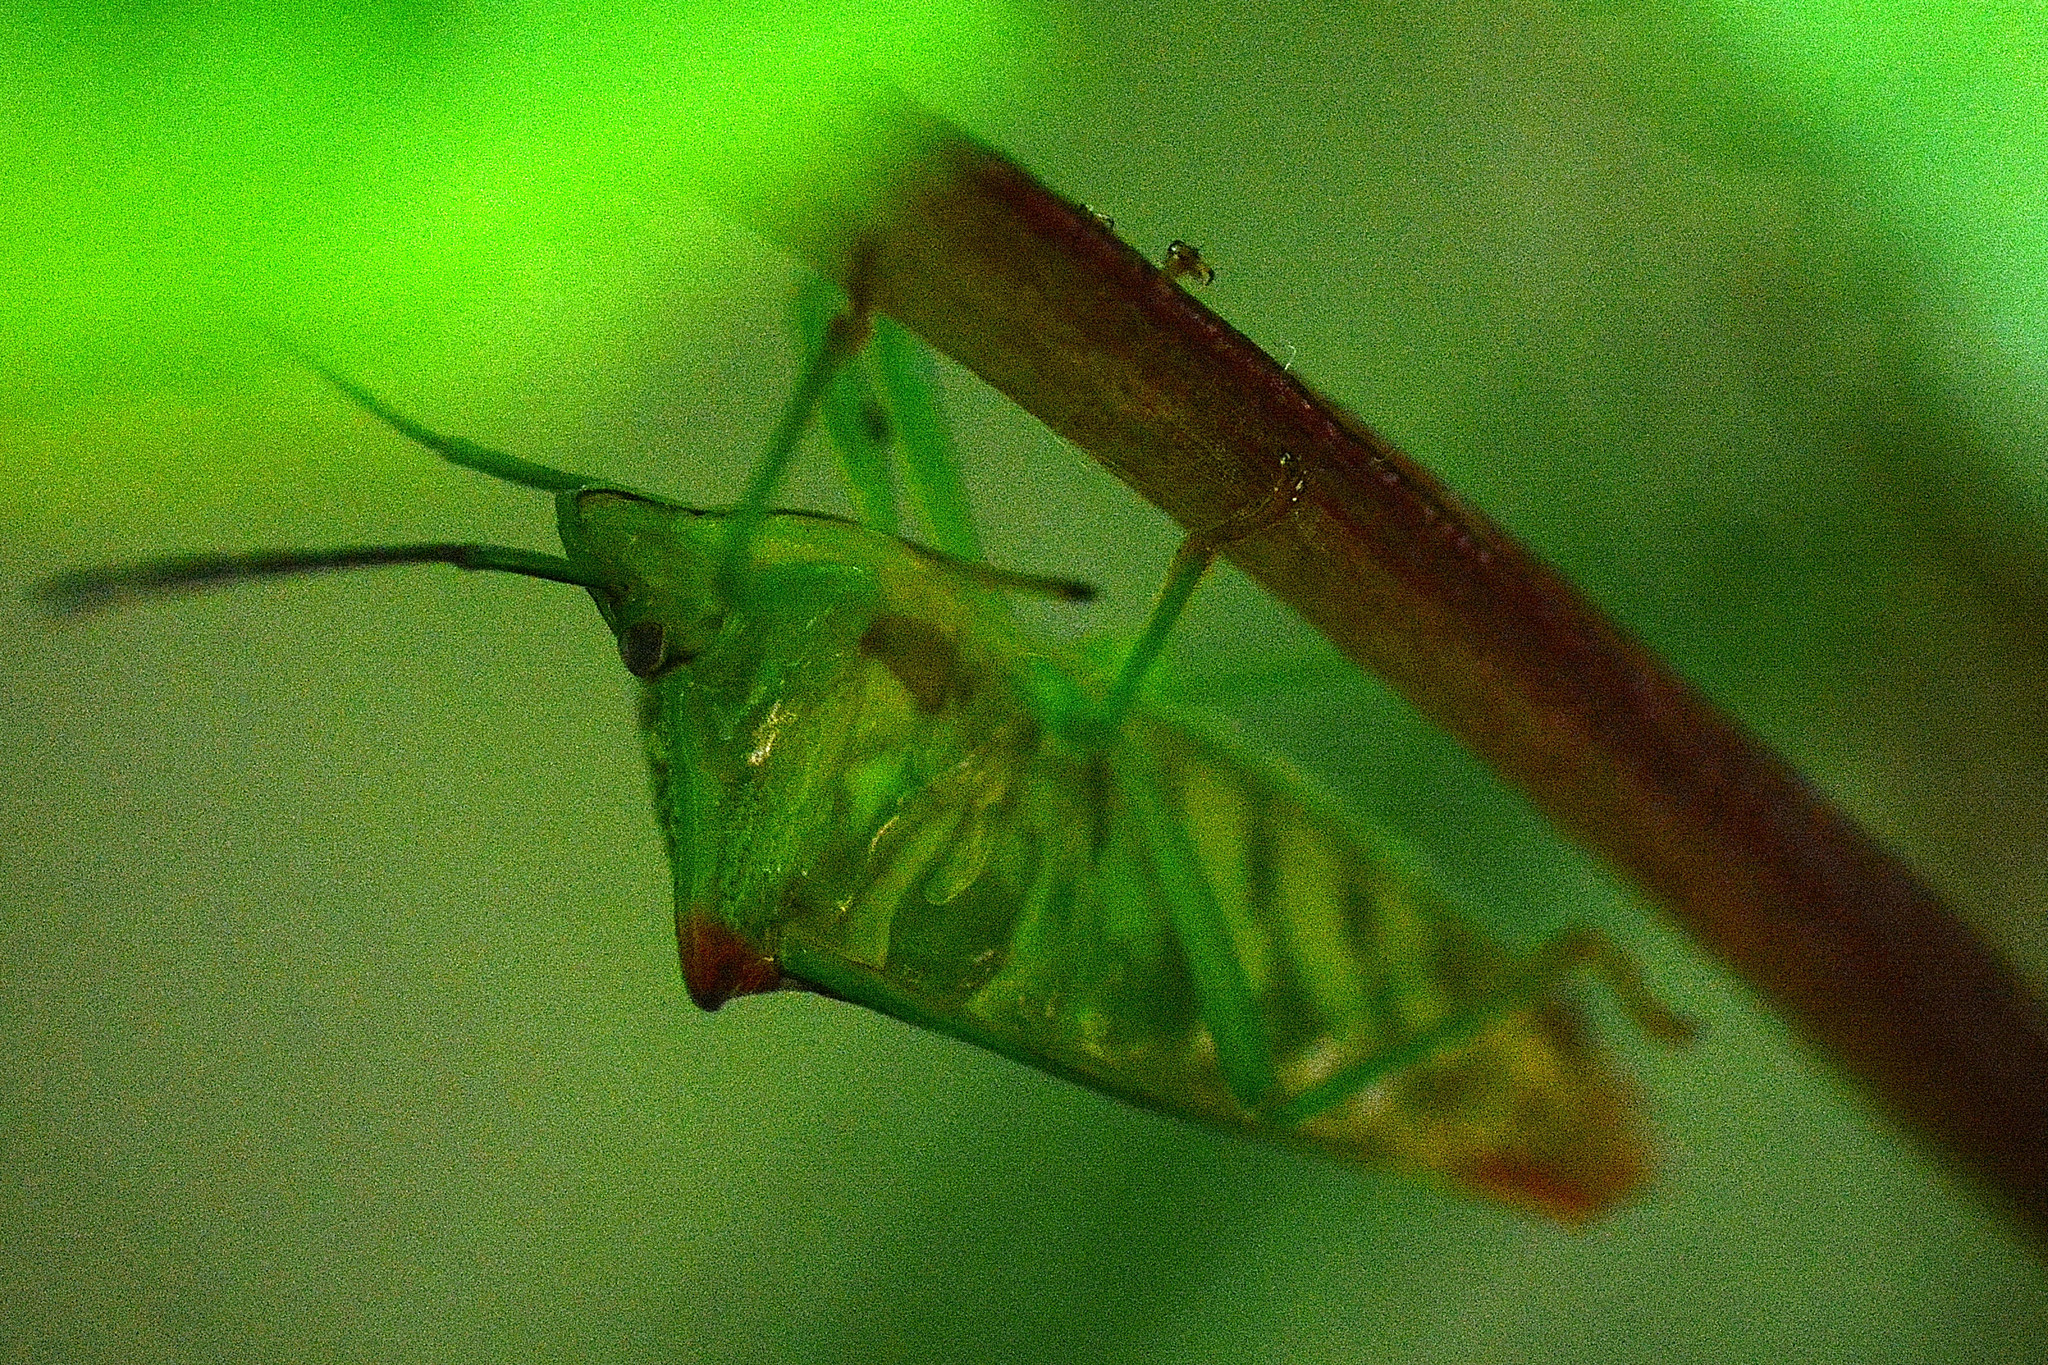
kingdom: Animalia
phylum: Arthropoda
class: Insecta
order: Hemiptera
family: Acanthosomatidae
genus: Acanthosoma
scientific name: Acanthosoma haemorrhoidale
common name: Hawthorn shieldbug
